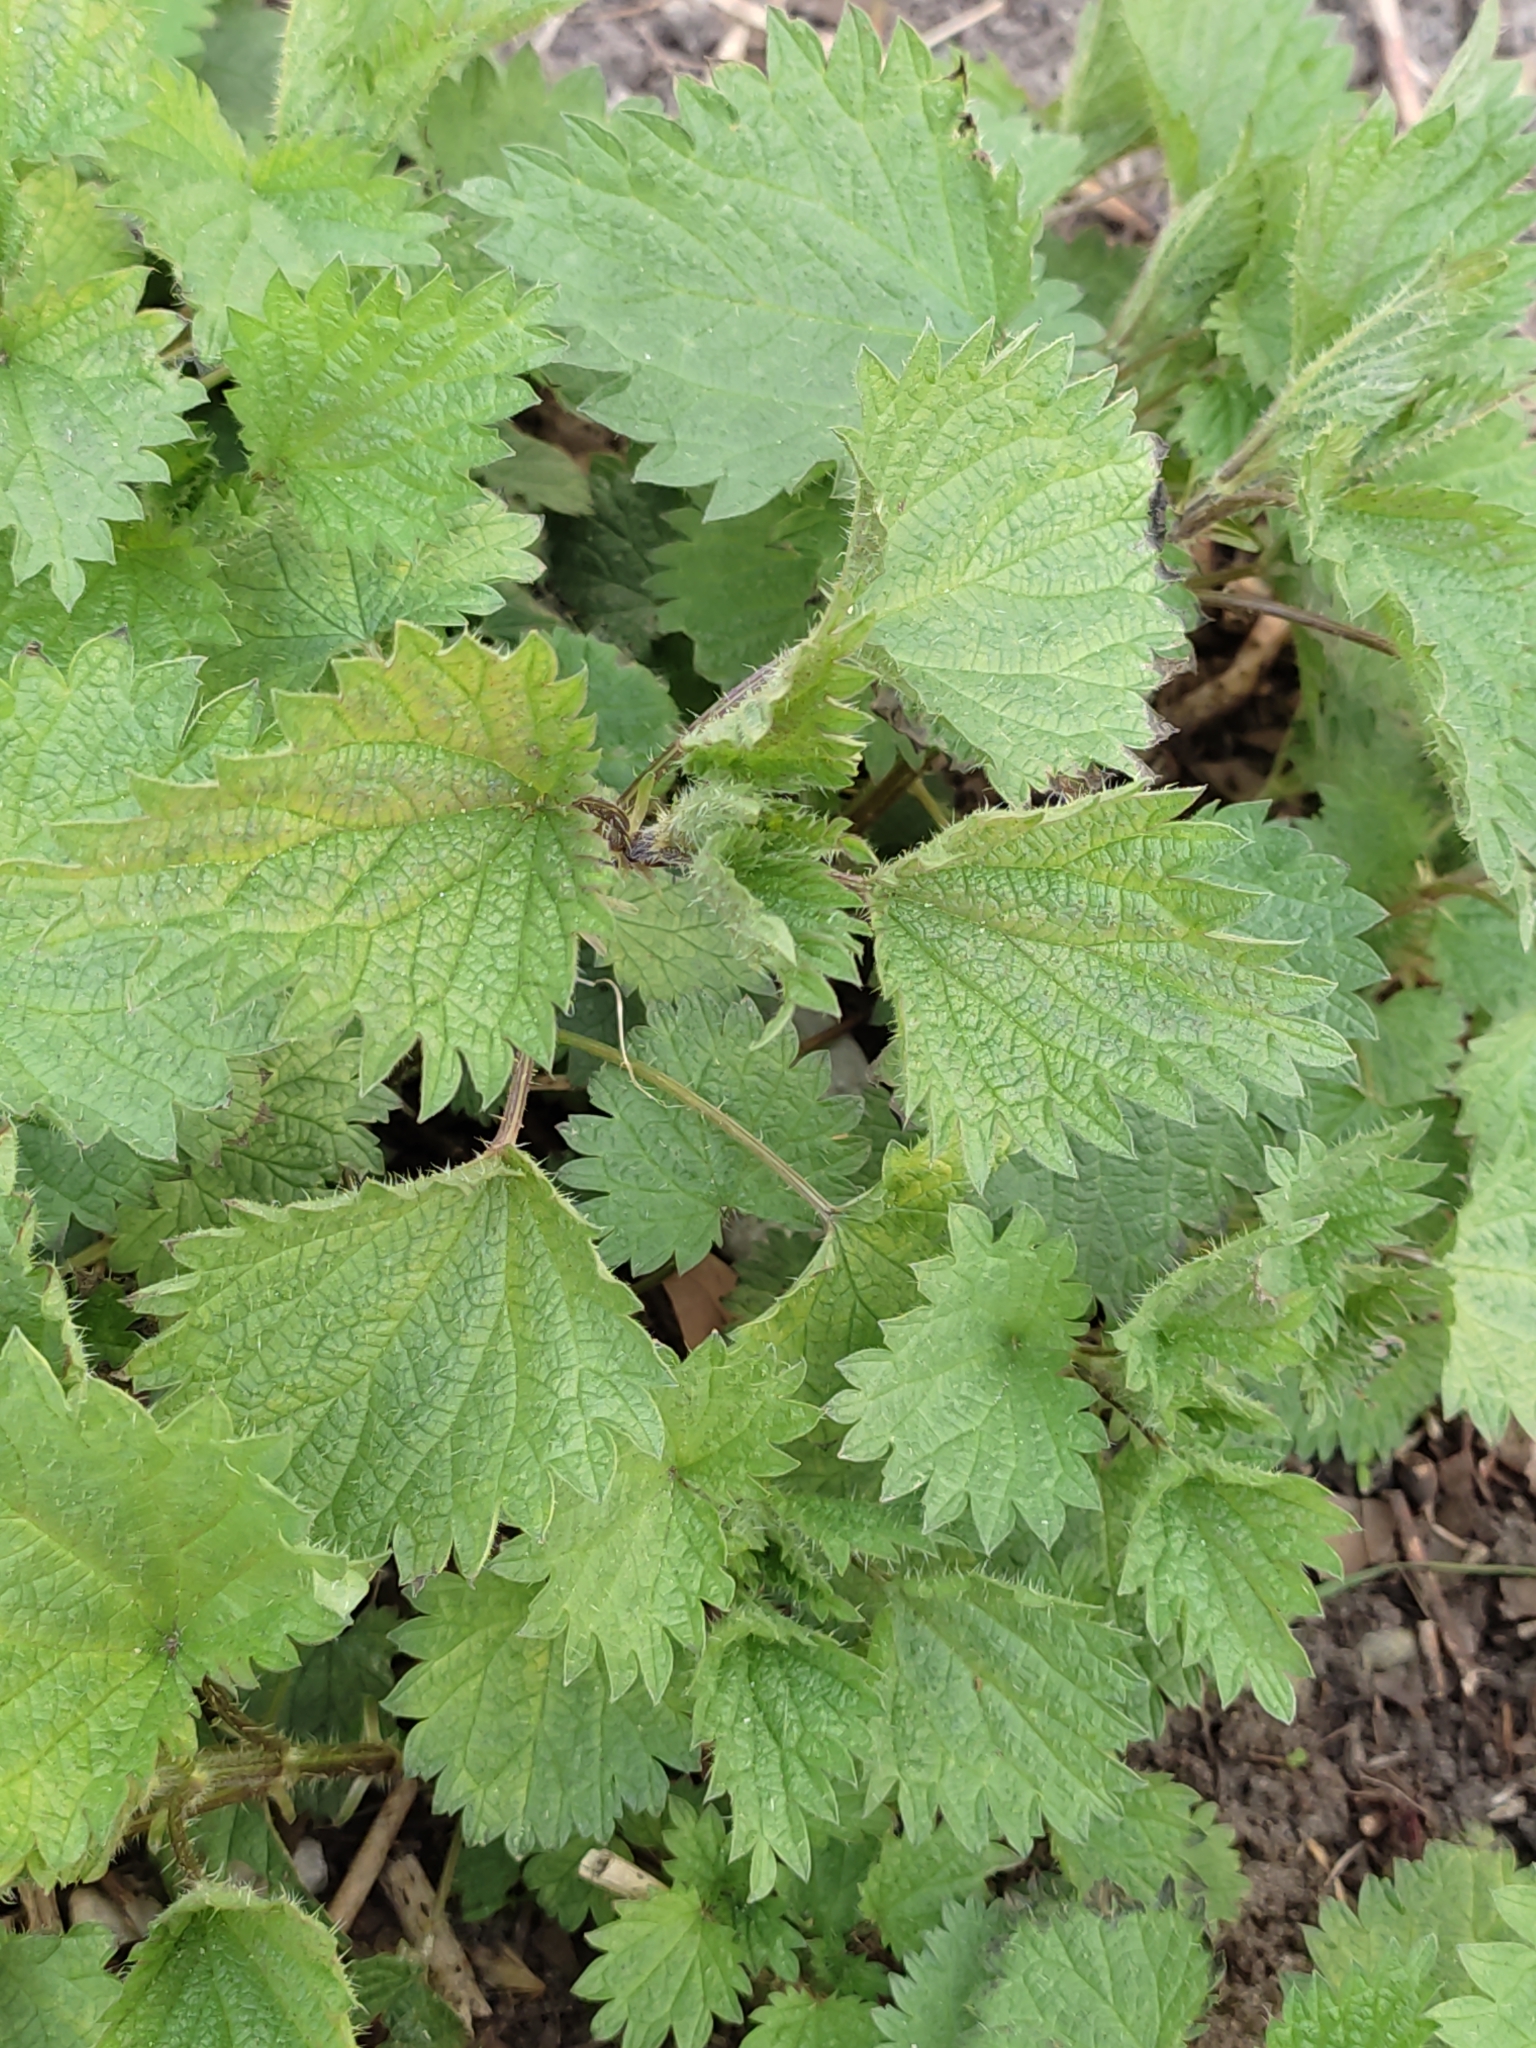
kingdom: Plantae
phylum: Tracheophyta
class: Magnoliopsida
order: Rosales
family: Urticaceae
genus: Urtica
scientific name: Urtica dioica
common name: Common nettle
